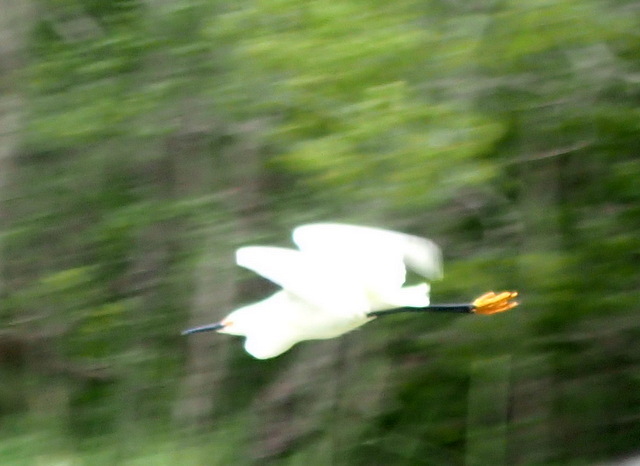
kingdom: Animalia
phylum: Chordata
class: Aves
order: Pelecaniformes
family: Ardeidae
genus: Egretta
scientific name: Egretta thula
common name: Snowy egret
